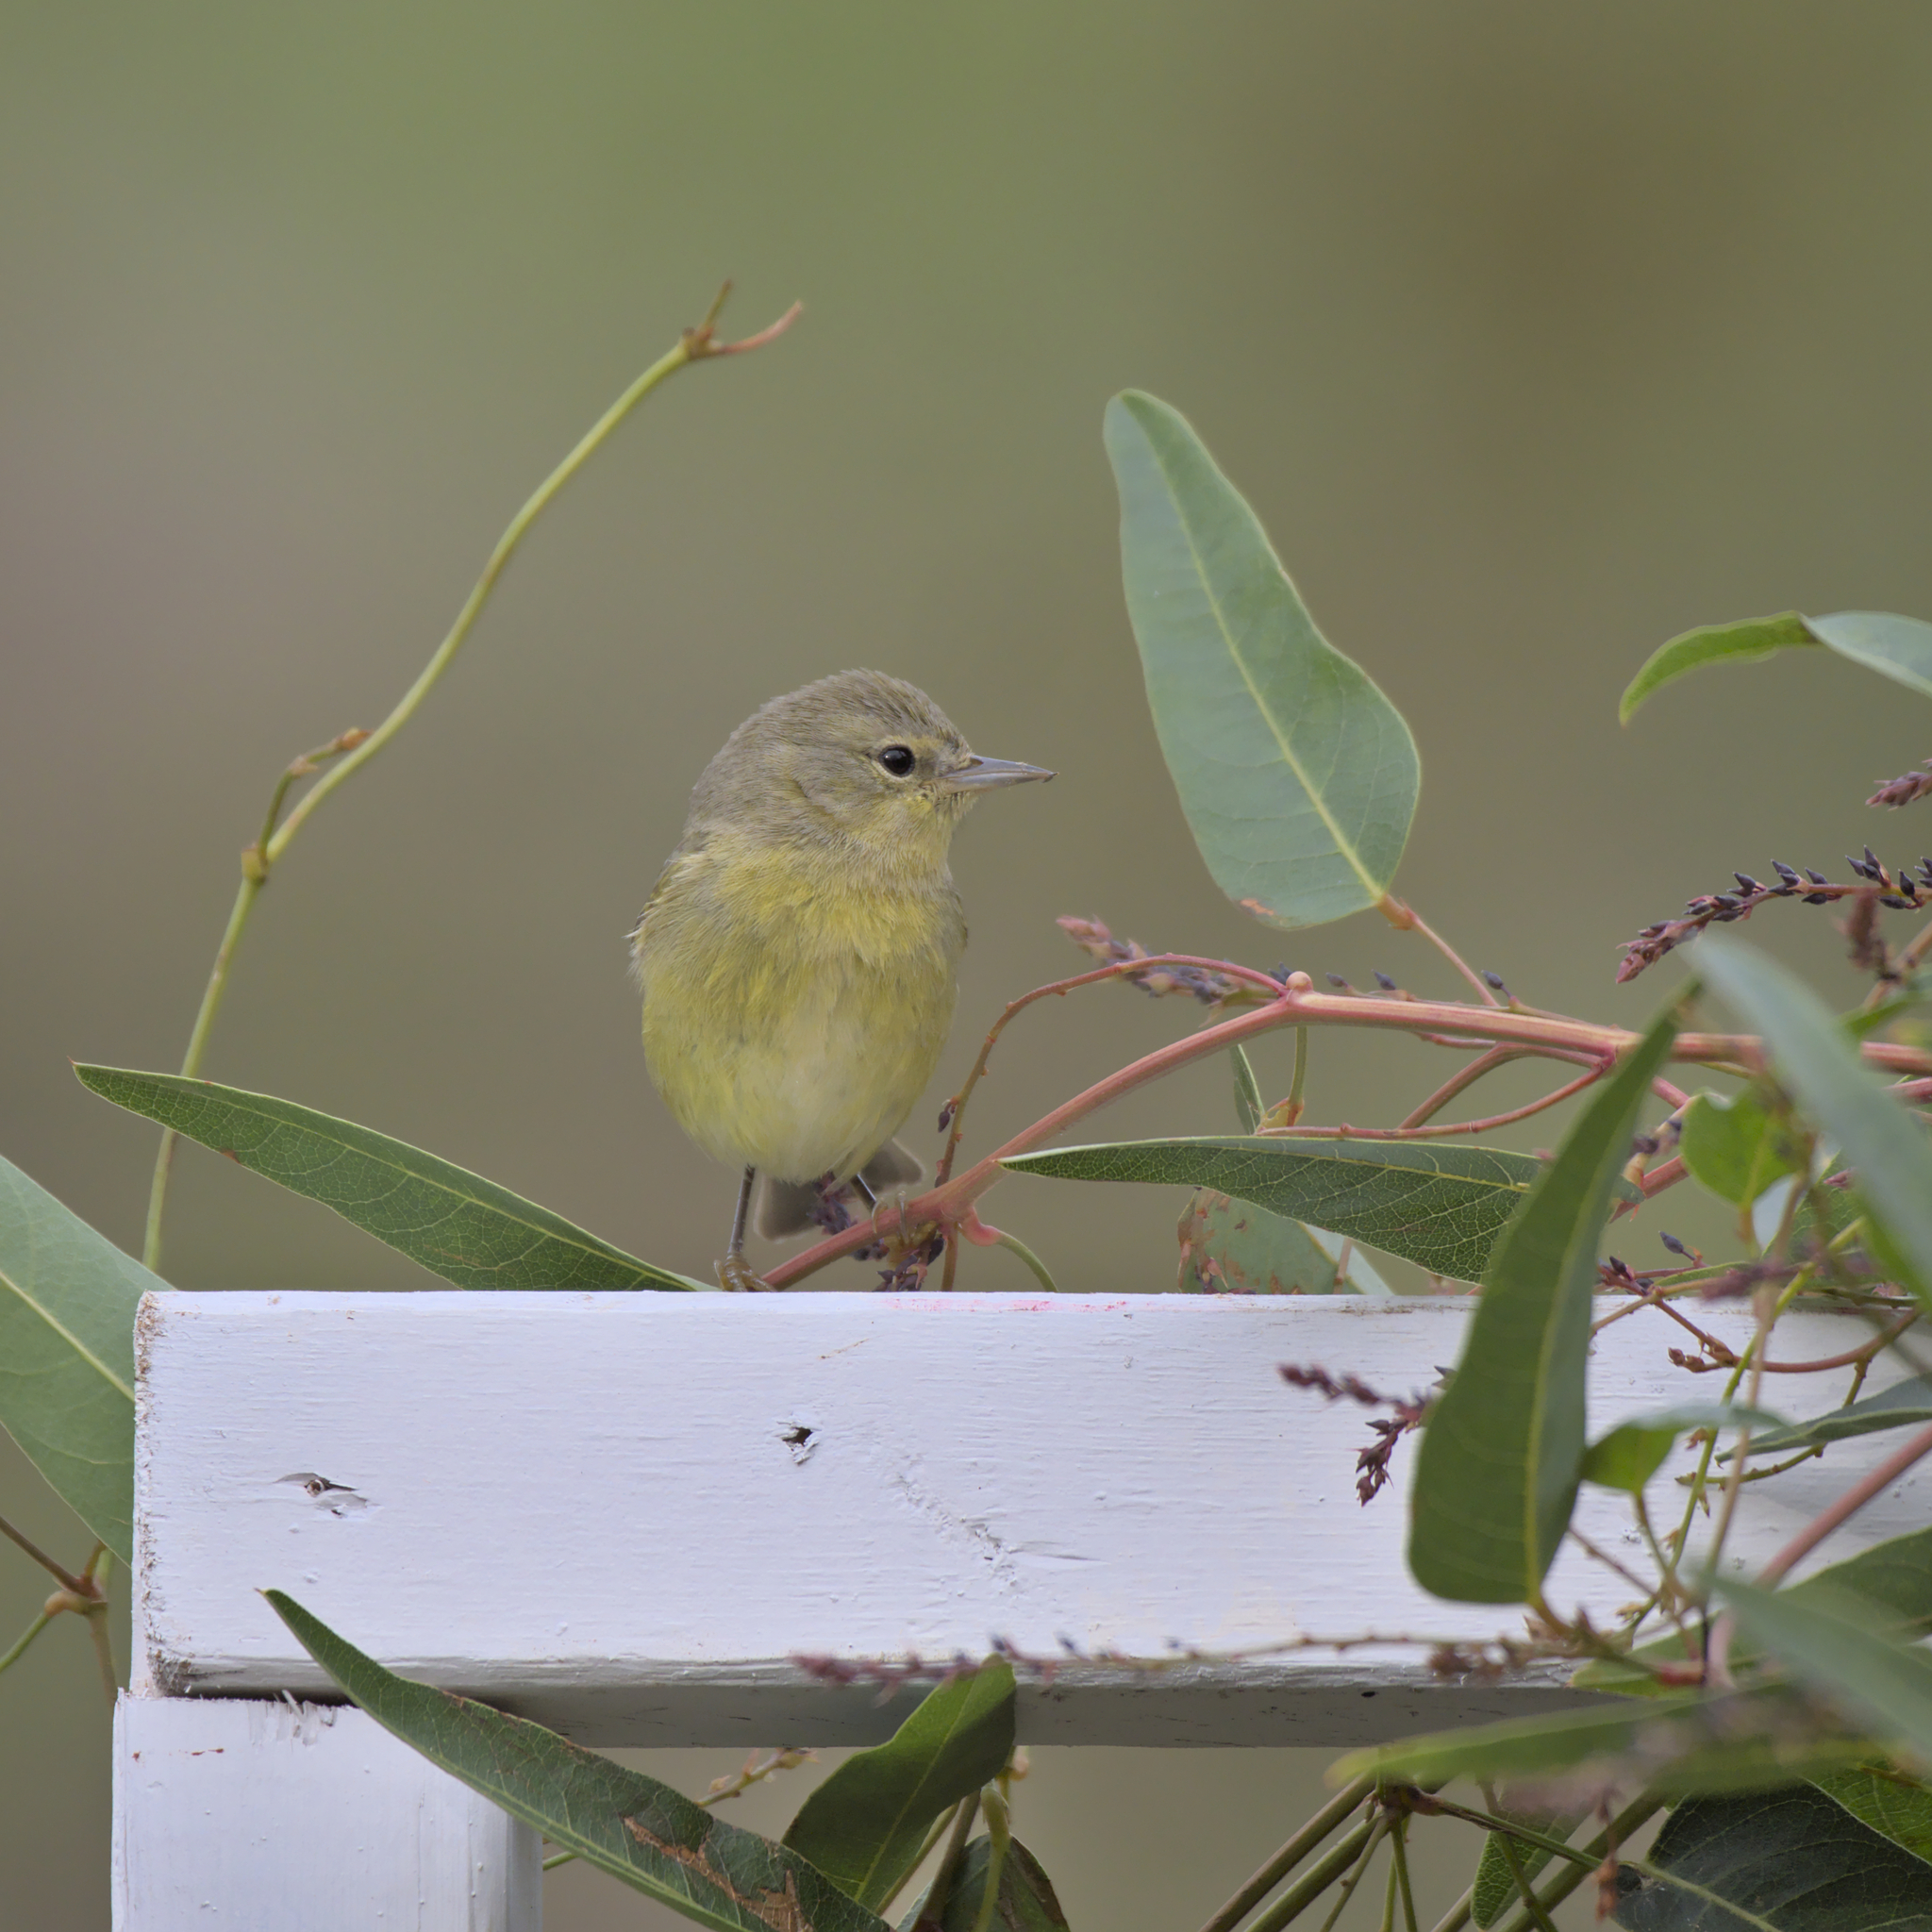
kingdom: Animalia
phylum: Chordata
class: Aves
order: Passeriformes
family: Parulidae
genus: Leiothlypis
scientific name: Leiothlypis celata
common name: Orange-crowned warbler
